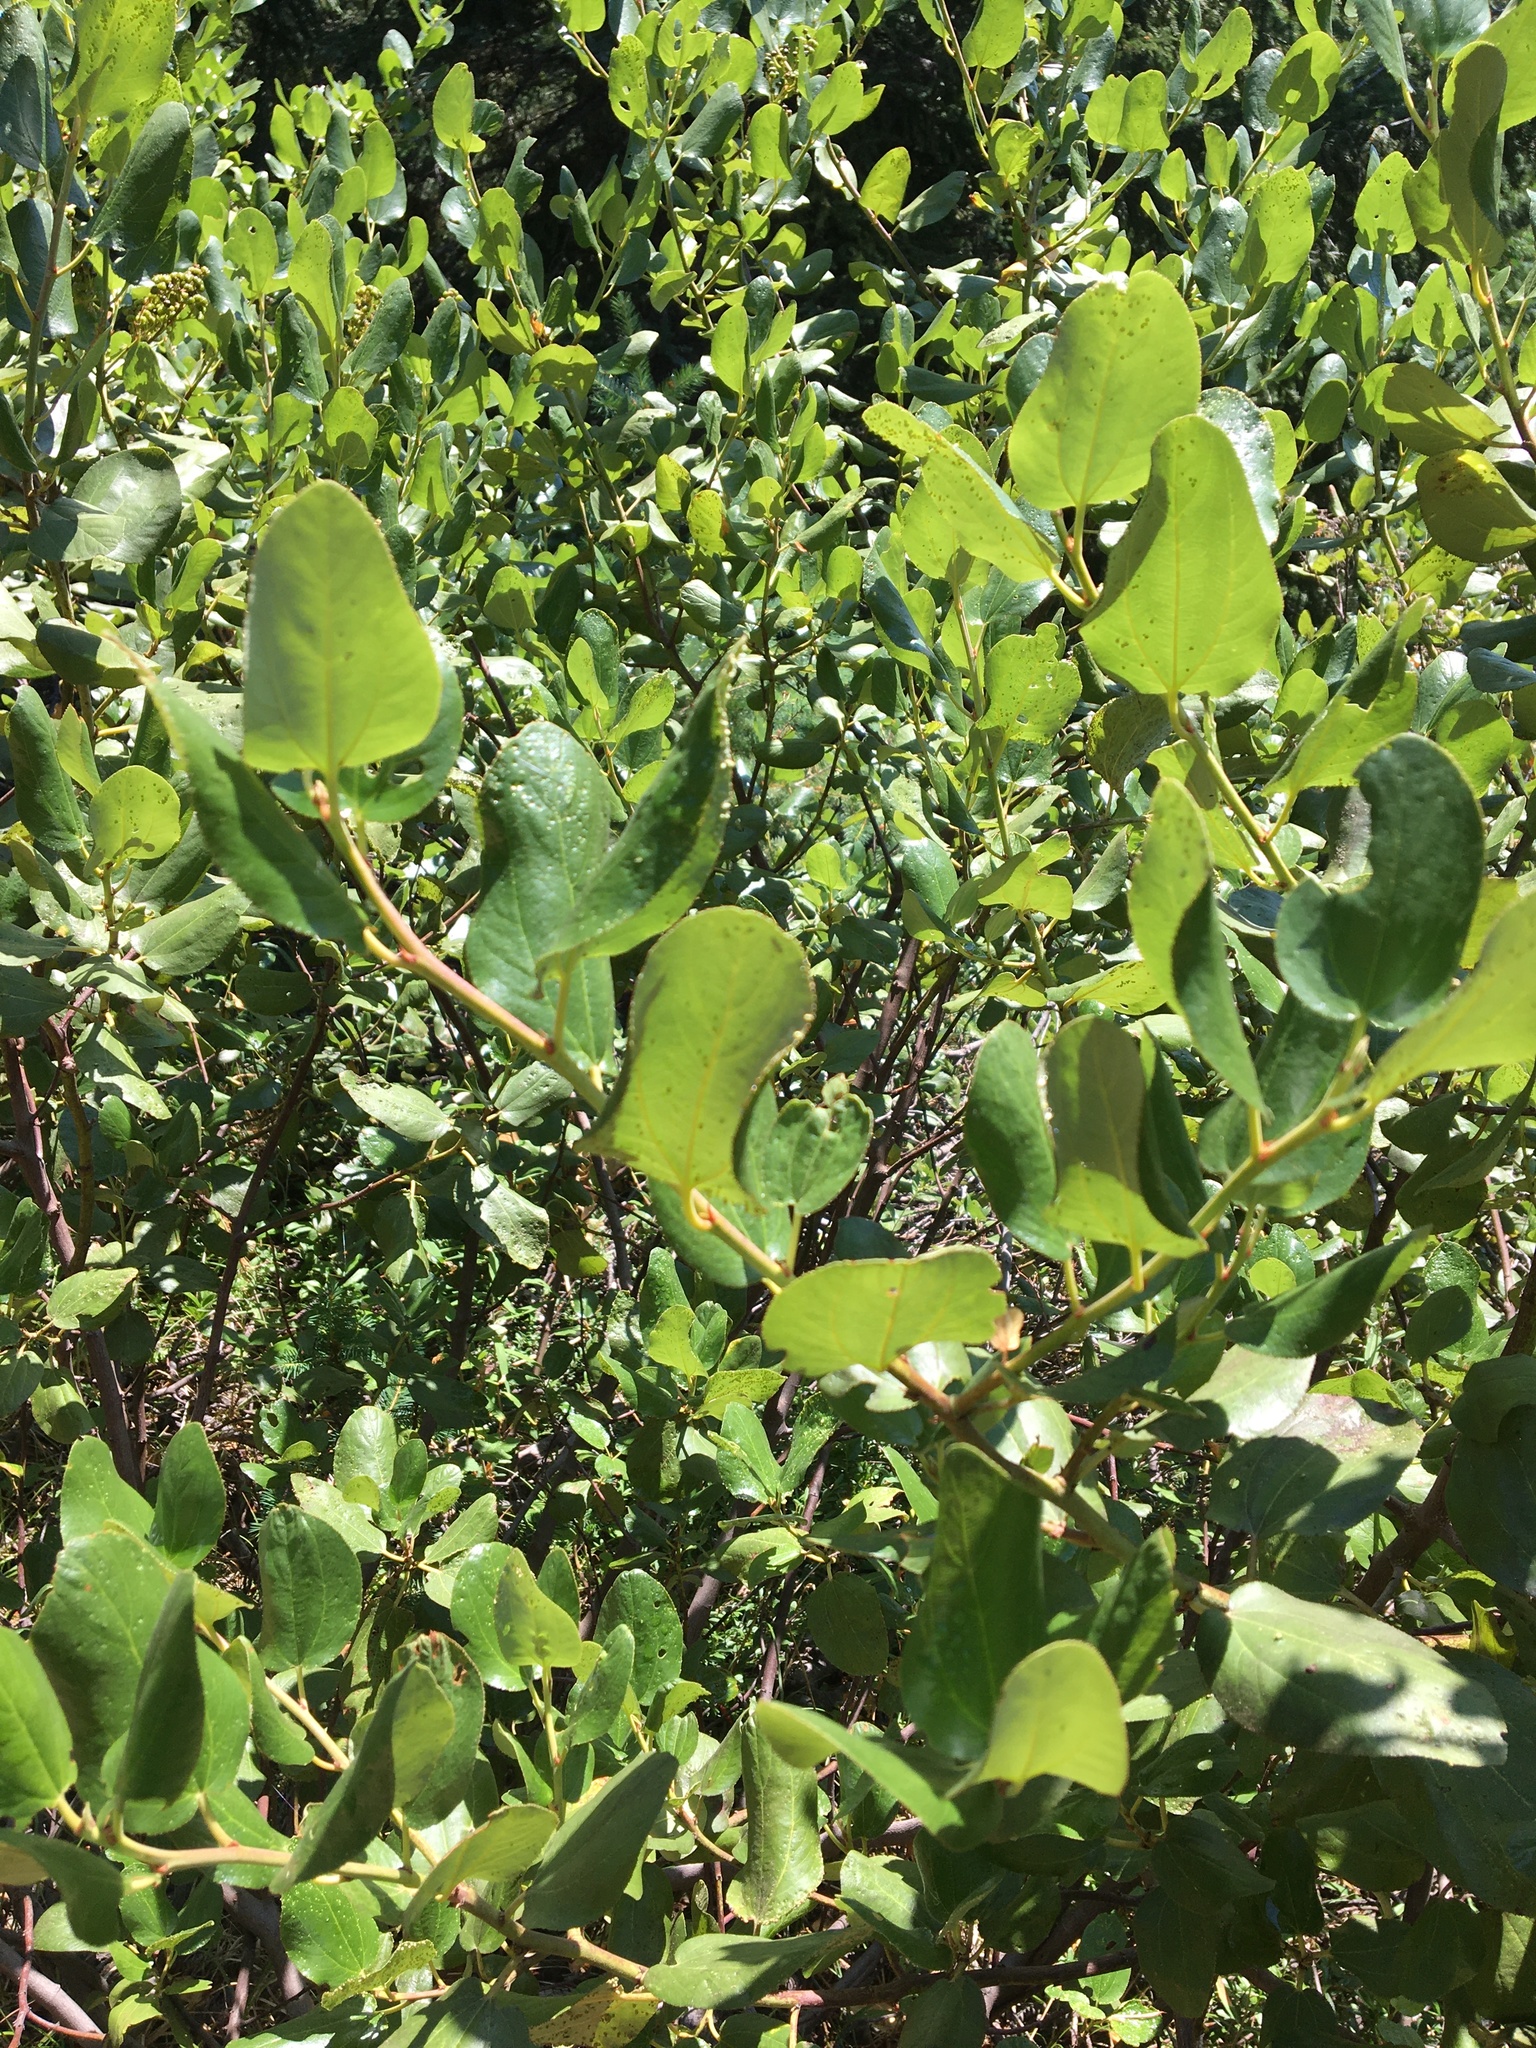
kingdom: Plantae
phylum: Tracheophyta
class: Magnoliopsida
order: Rosales
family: Rhamnaceae
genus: Ceanothus
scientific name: Ceanothus velutinus
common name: Snowbrush
